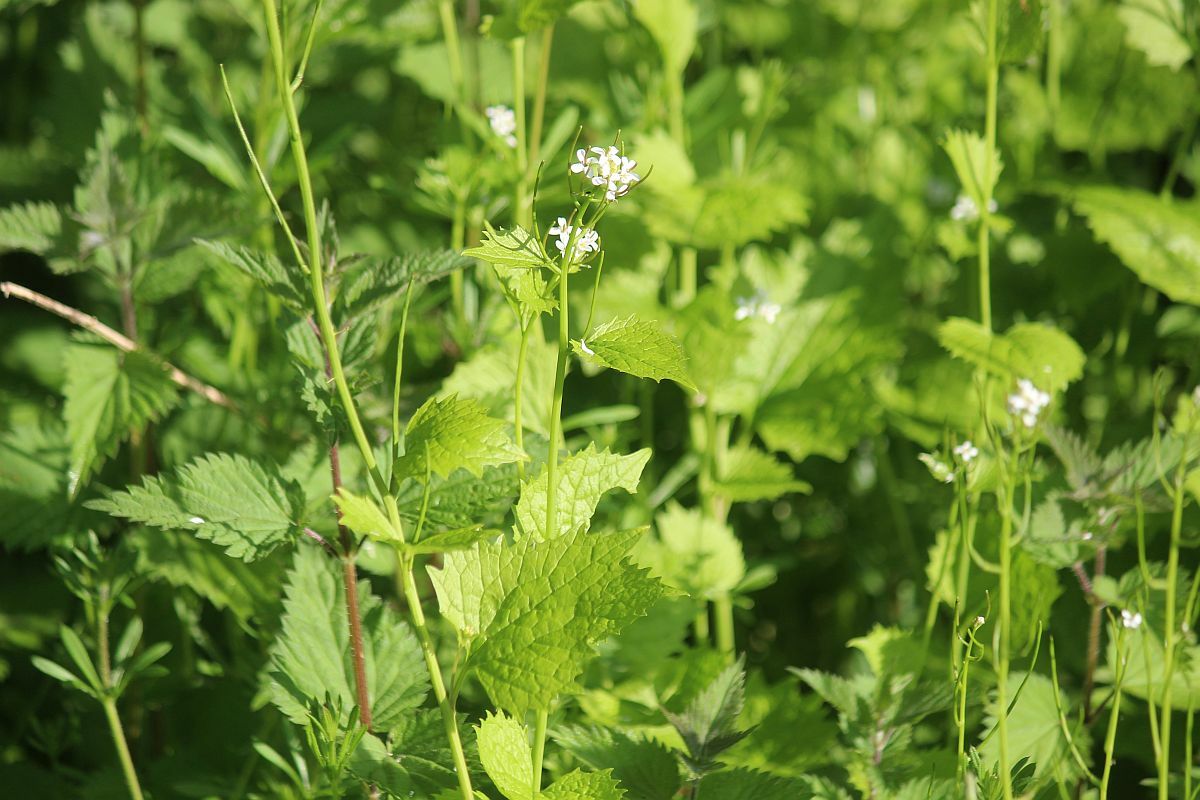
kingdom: Plantae
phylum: Tracheophyta
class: Magnoliopsida
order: Brassicales
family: Brassicaceae
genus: Alliaria
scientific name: Alliaria petiolata
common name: Garlic mustard
